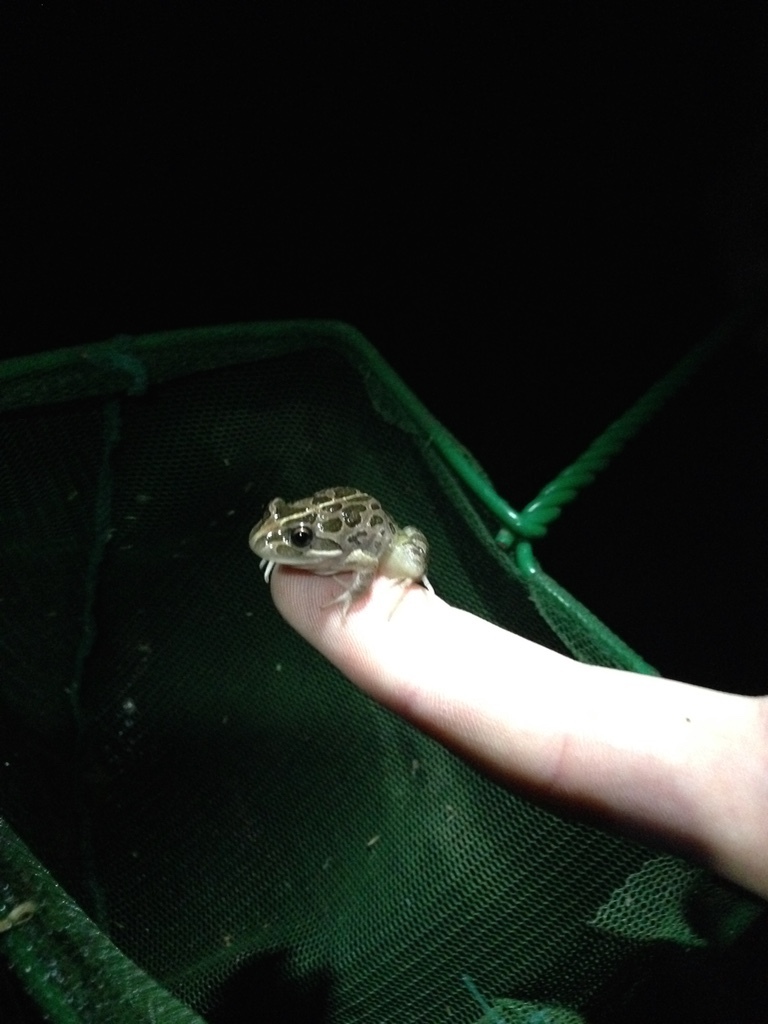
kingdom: Animalia
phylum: Chordata
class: Amphibia
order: Anura
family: Limnodynastidae
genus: Limnodynastes
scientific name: Limnodynastes tasmaniensis
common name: Spotted marsh frog
